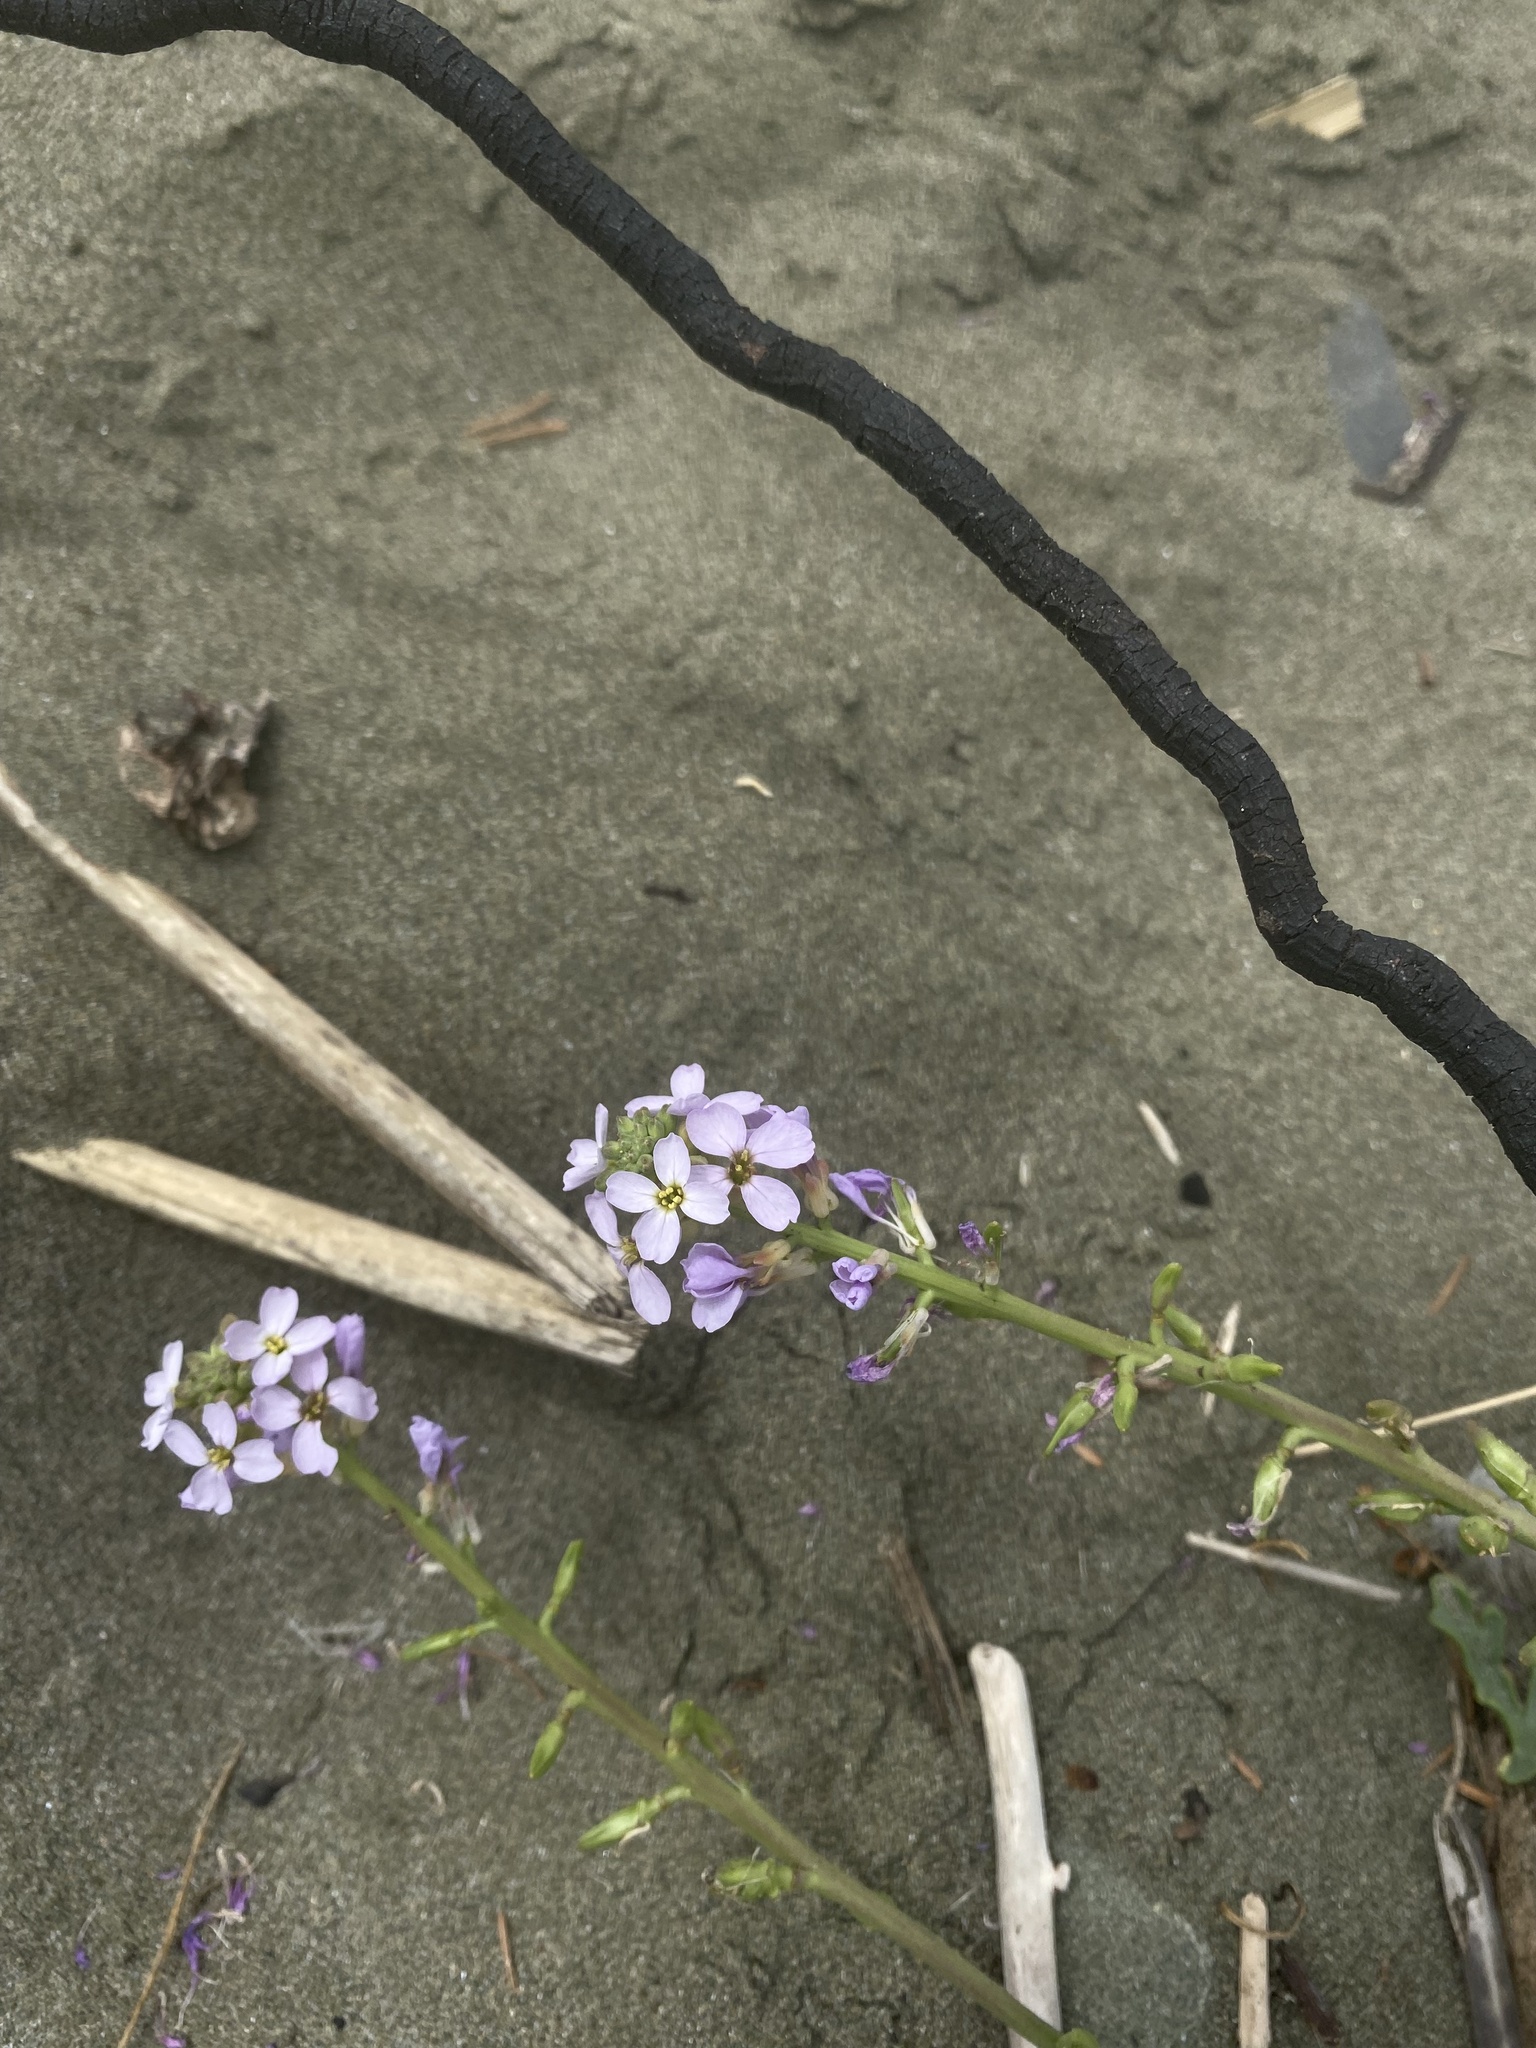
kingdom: Plantae
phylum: Tracheophyta
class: Magnoliopsida
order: Brassicales
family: Brassicaceae
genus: Cakile
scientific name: Cakile maritima
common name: Sea rocket
